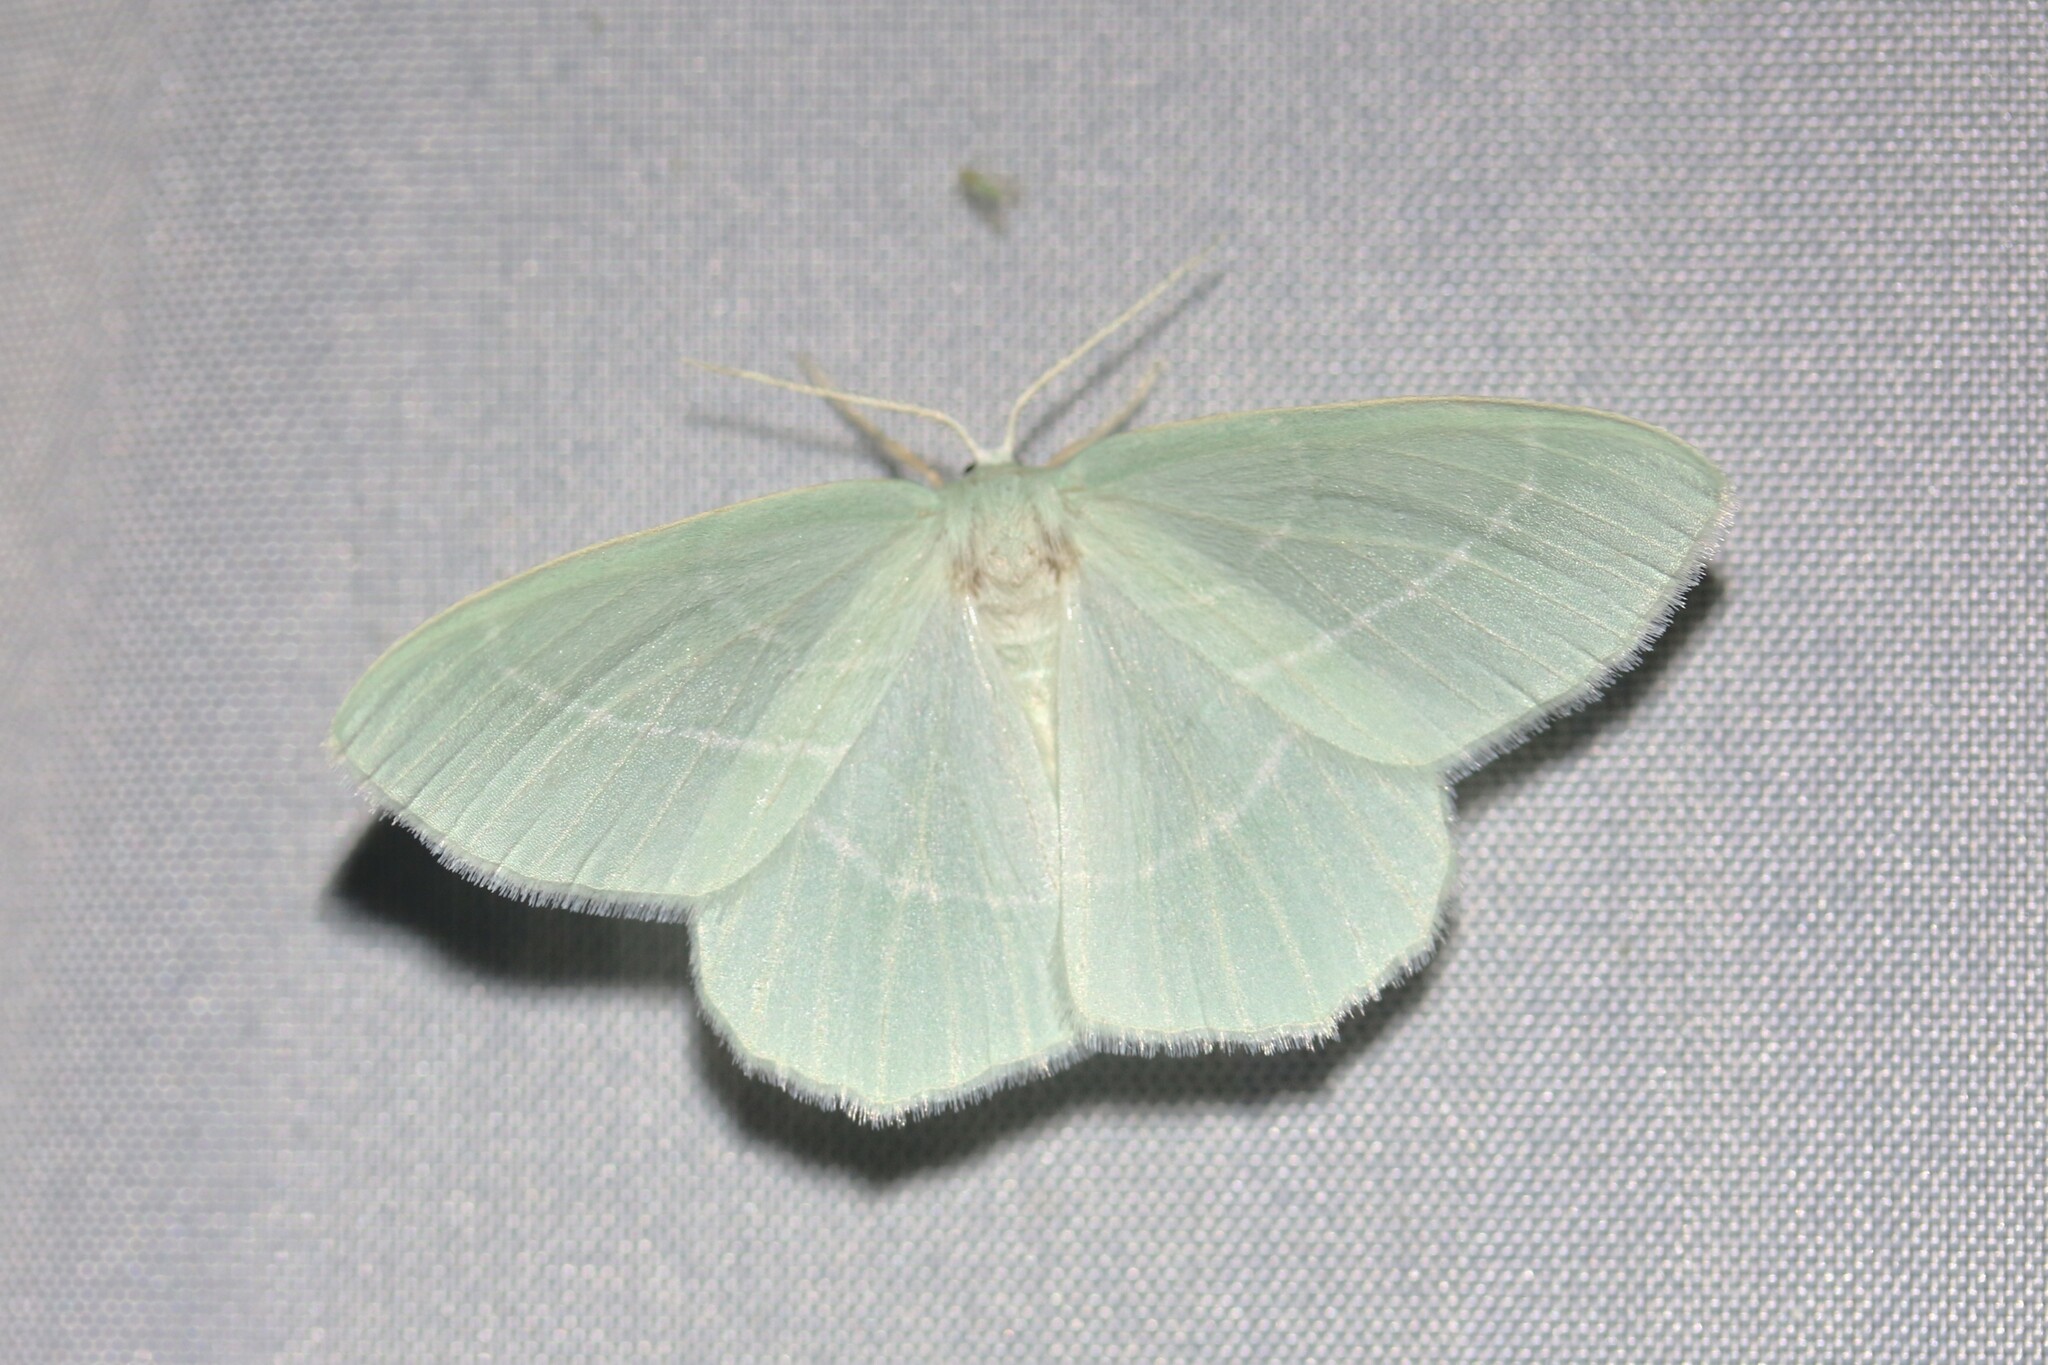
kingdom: Animalia
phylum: Arthropoda
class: Insecta
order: Lepidoptera
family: Geometridae
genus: Hemistola
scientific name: Hemistola chrysoprasaria
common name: Small emerald
